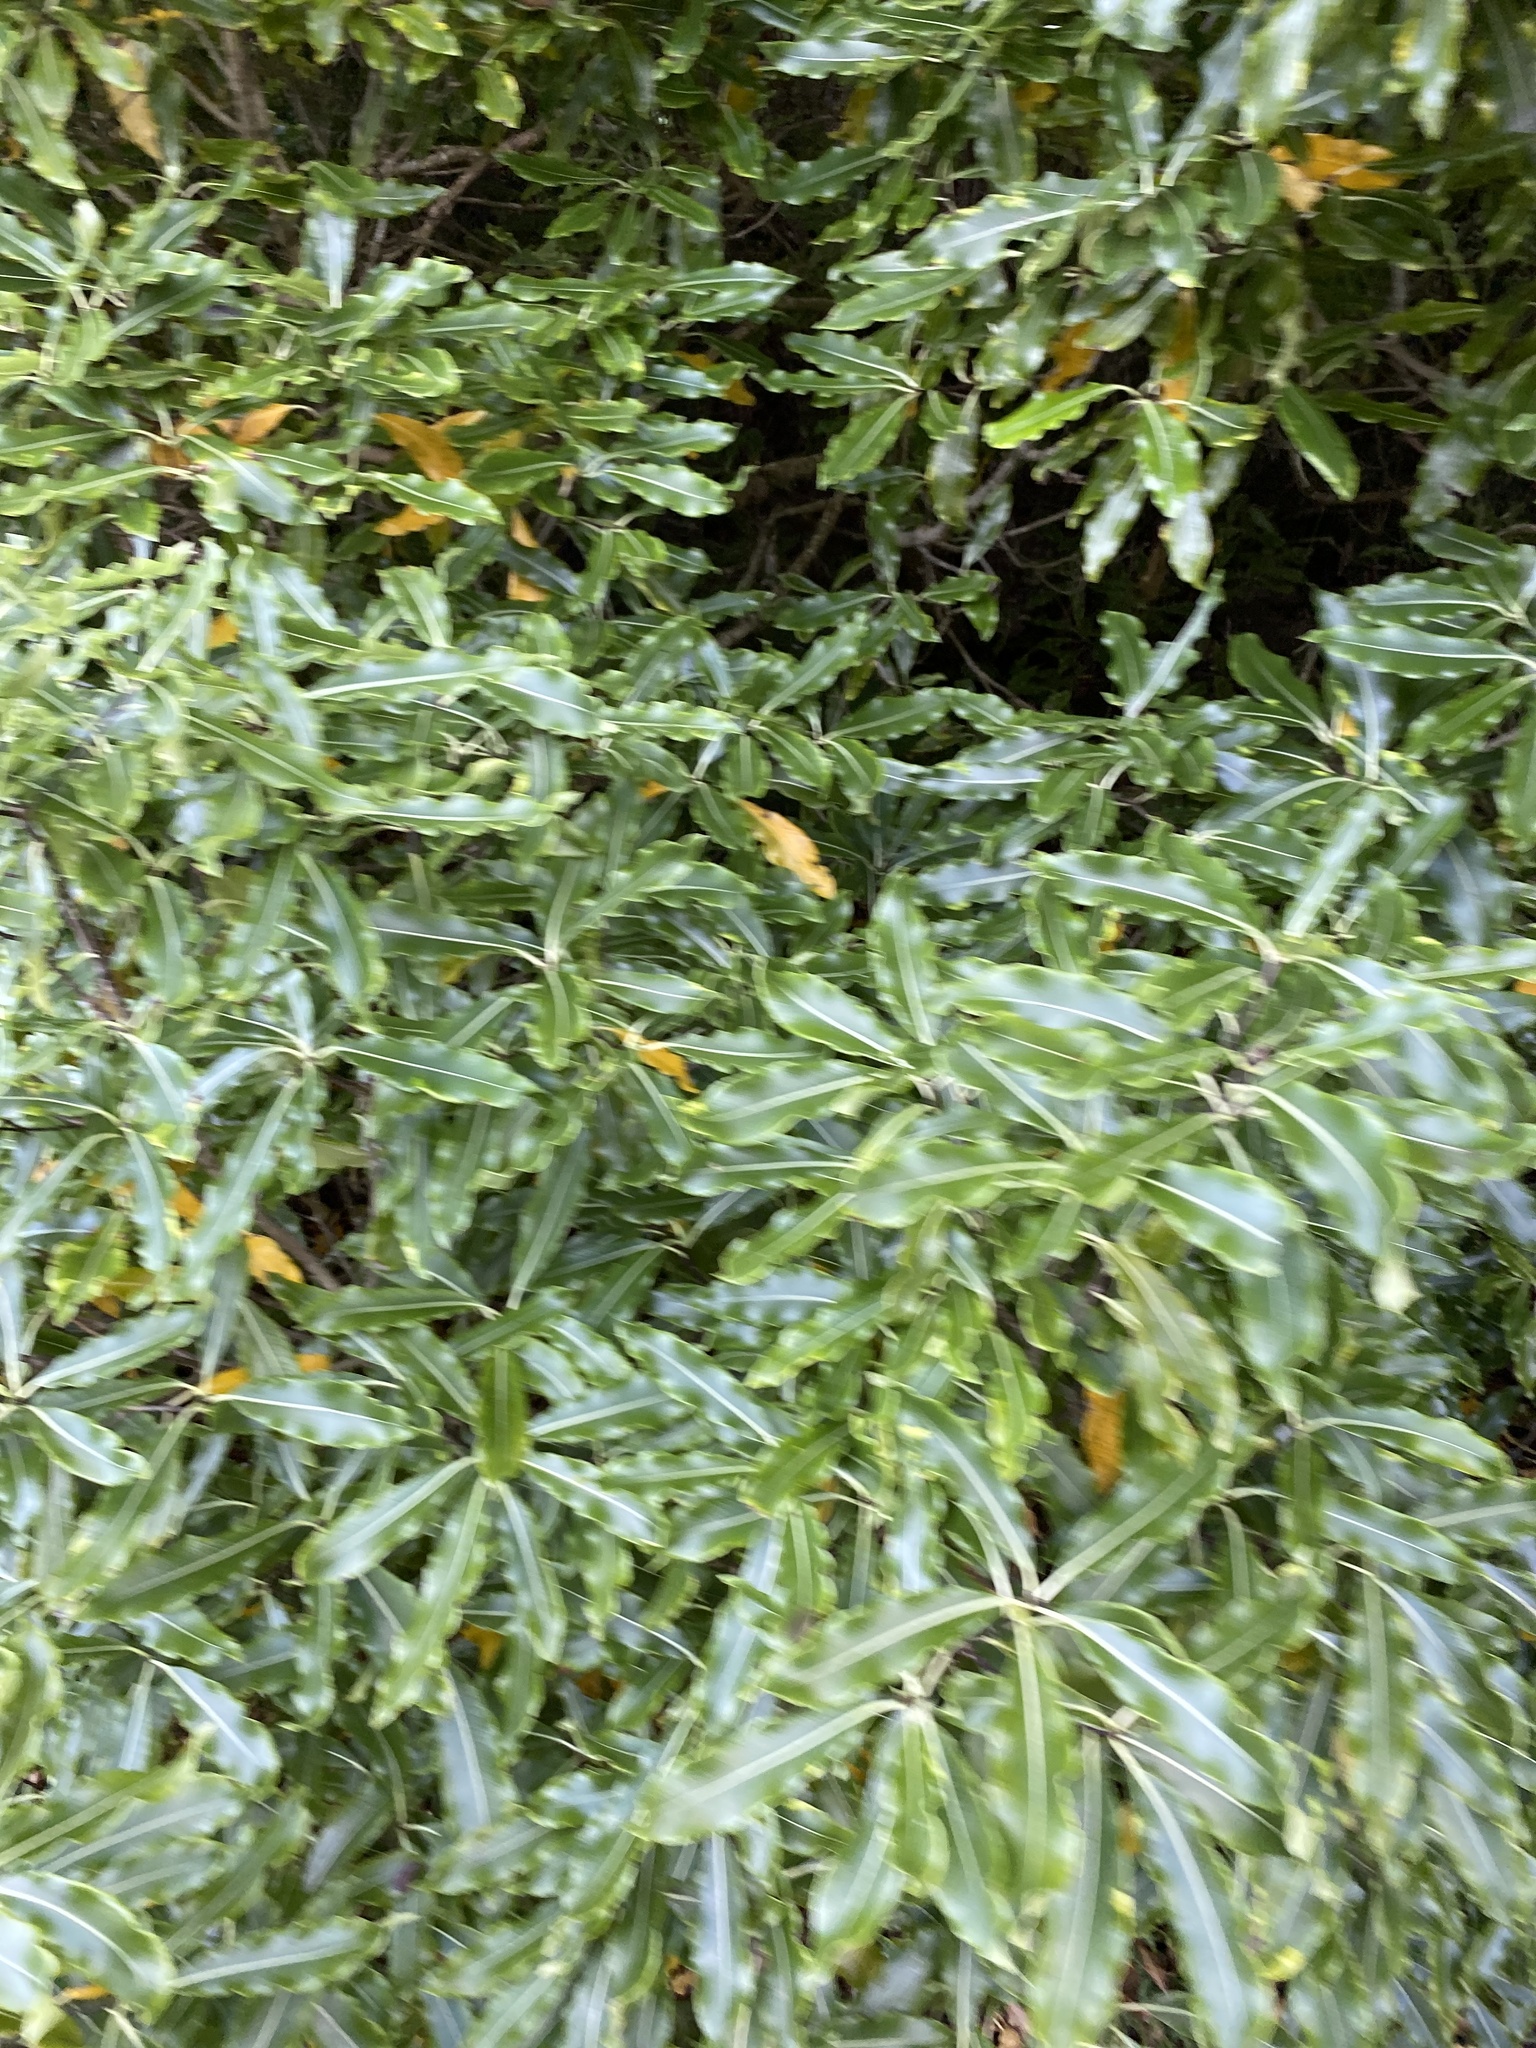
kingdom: Plantae
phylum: Tracheophyta
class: Magnoliopsida
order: Apiales
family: Pittosporaceae
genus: Pittosporum
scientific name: Pittosporum eugenioides
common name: Lemonwood
